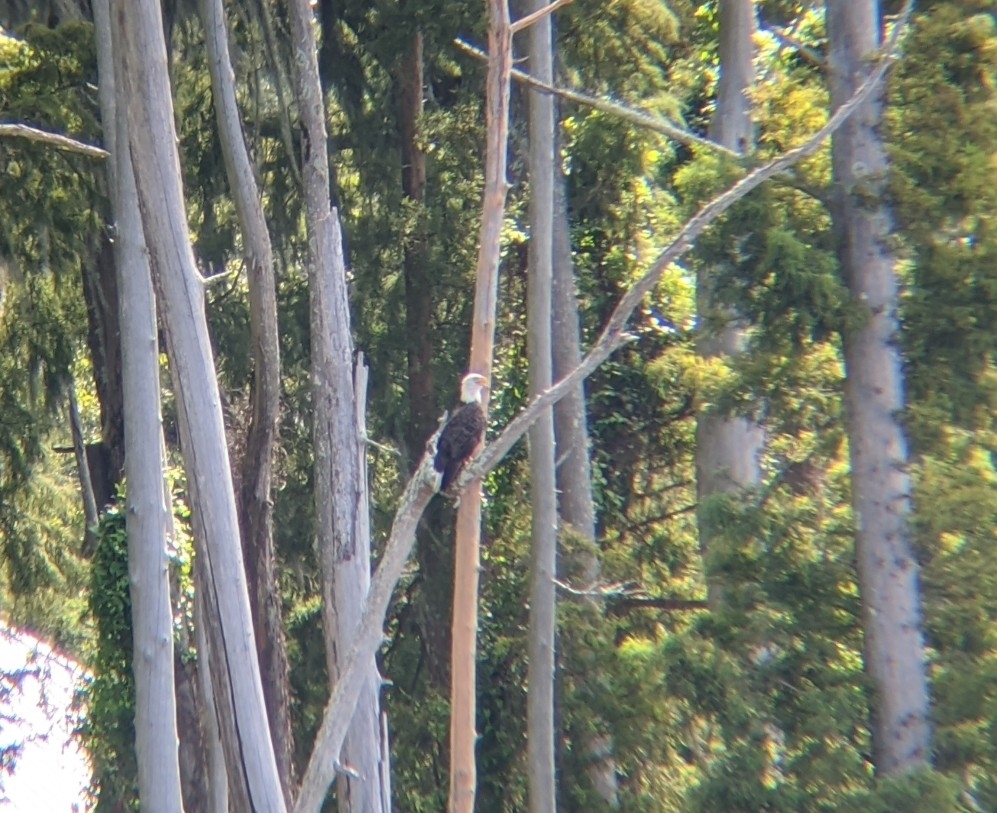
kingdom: Animalia
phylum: Chordata
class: Aves
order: Accipitriformes
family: Accipitridae
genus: Haliaeetus
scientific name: Haliaeetus leucocephalus
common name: Bald eagle
